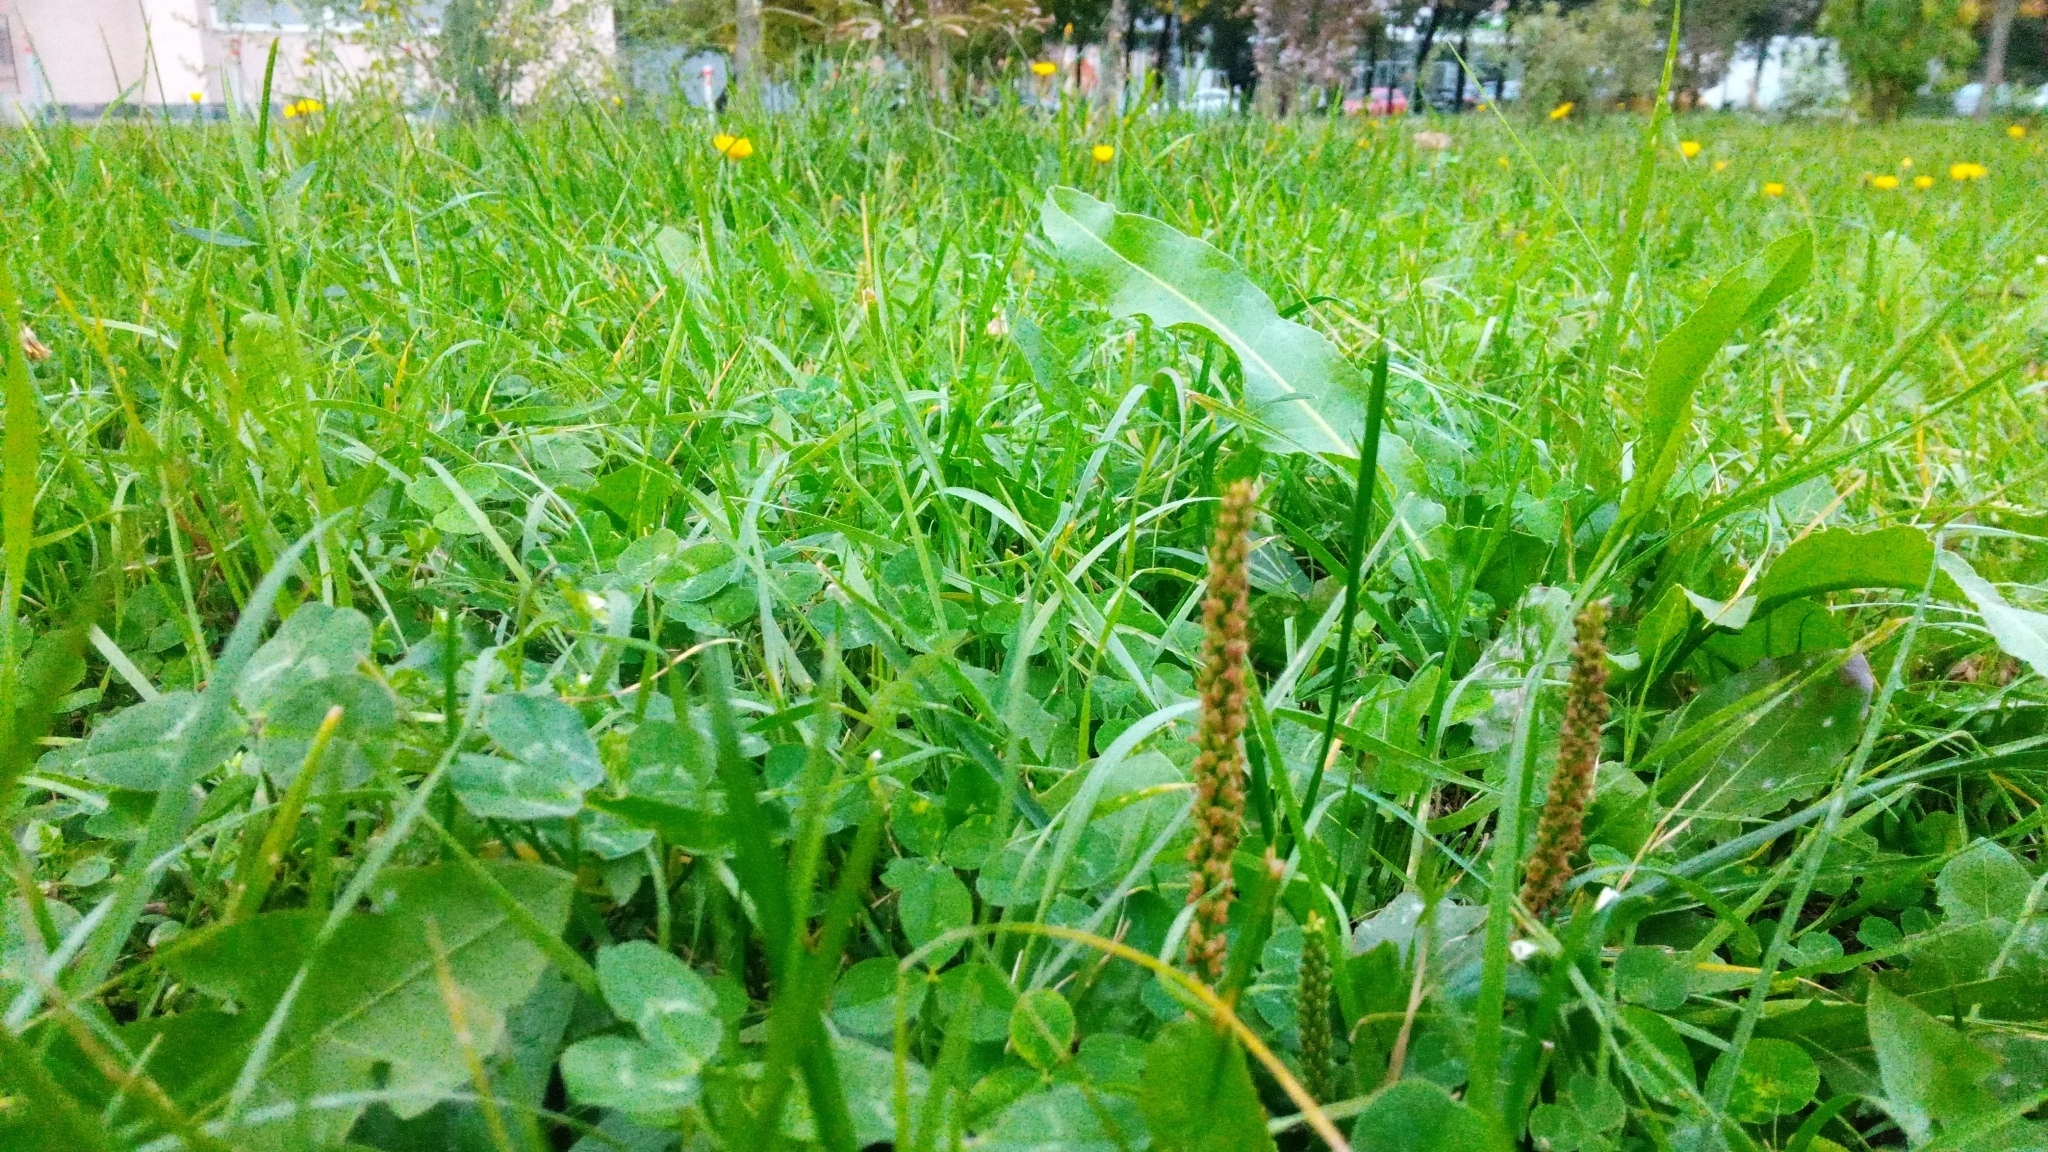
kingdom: Plantae
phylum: Tracheophyta
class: Magnoliopsida
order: Lamiales
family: Plantaginaceae
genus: Plantago
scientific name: Plantago major
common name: Common plantain
